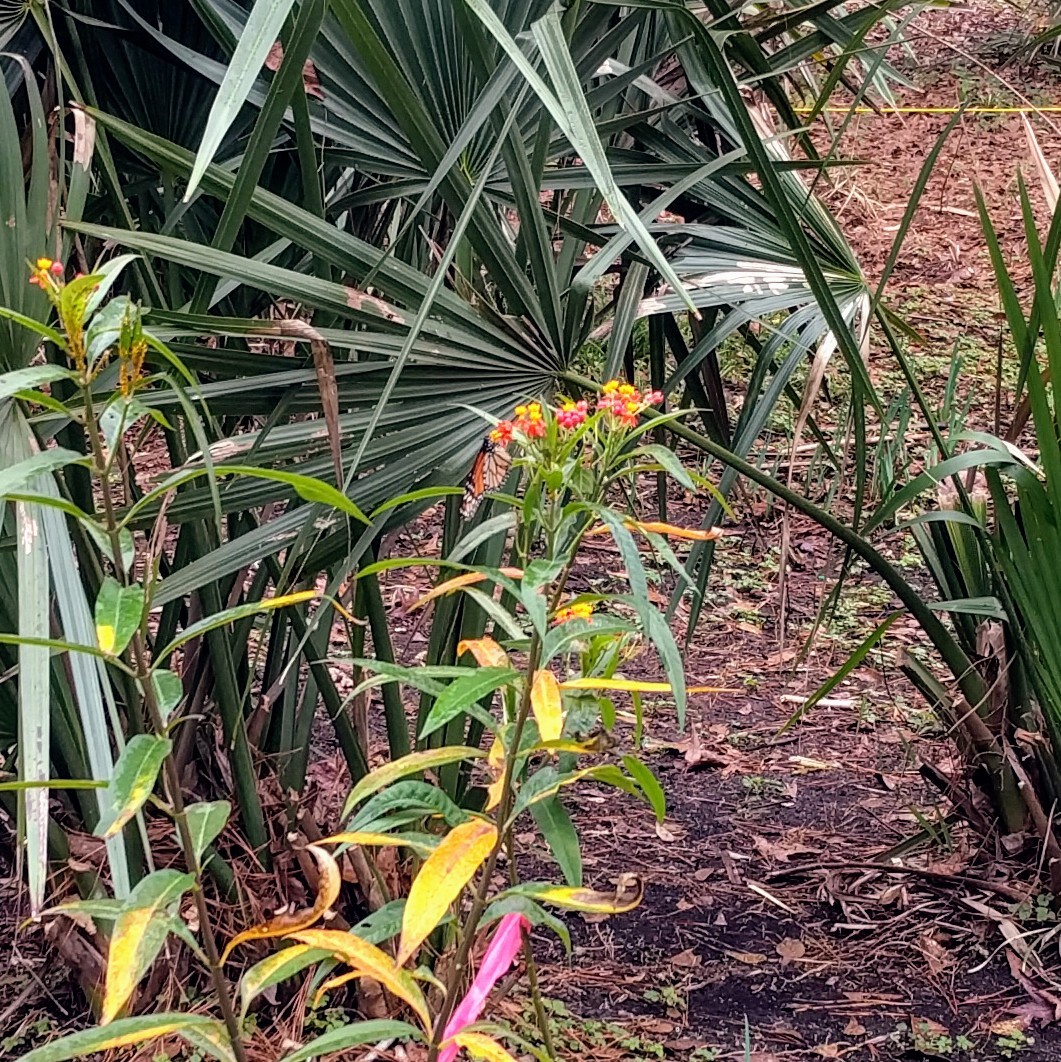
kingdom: Animalia
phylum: Arthropoda
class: Insecta
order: Lepidoptera
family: Nymphalidae
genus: Danaus
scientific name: Danaus plexippus
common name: Monarch
